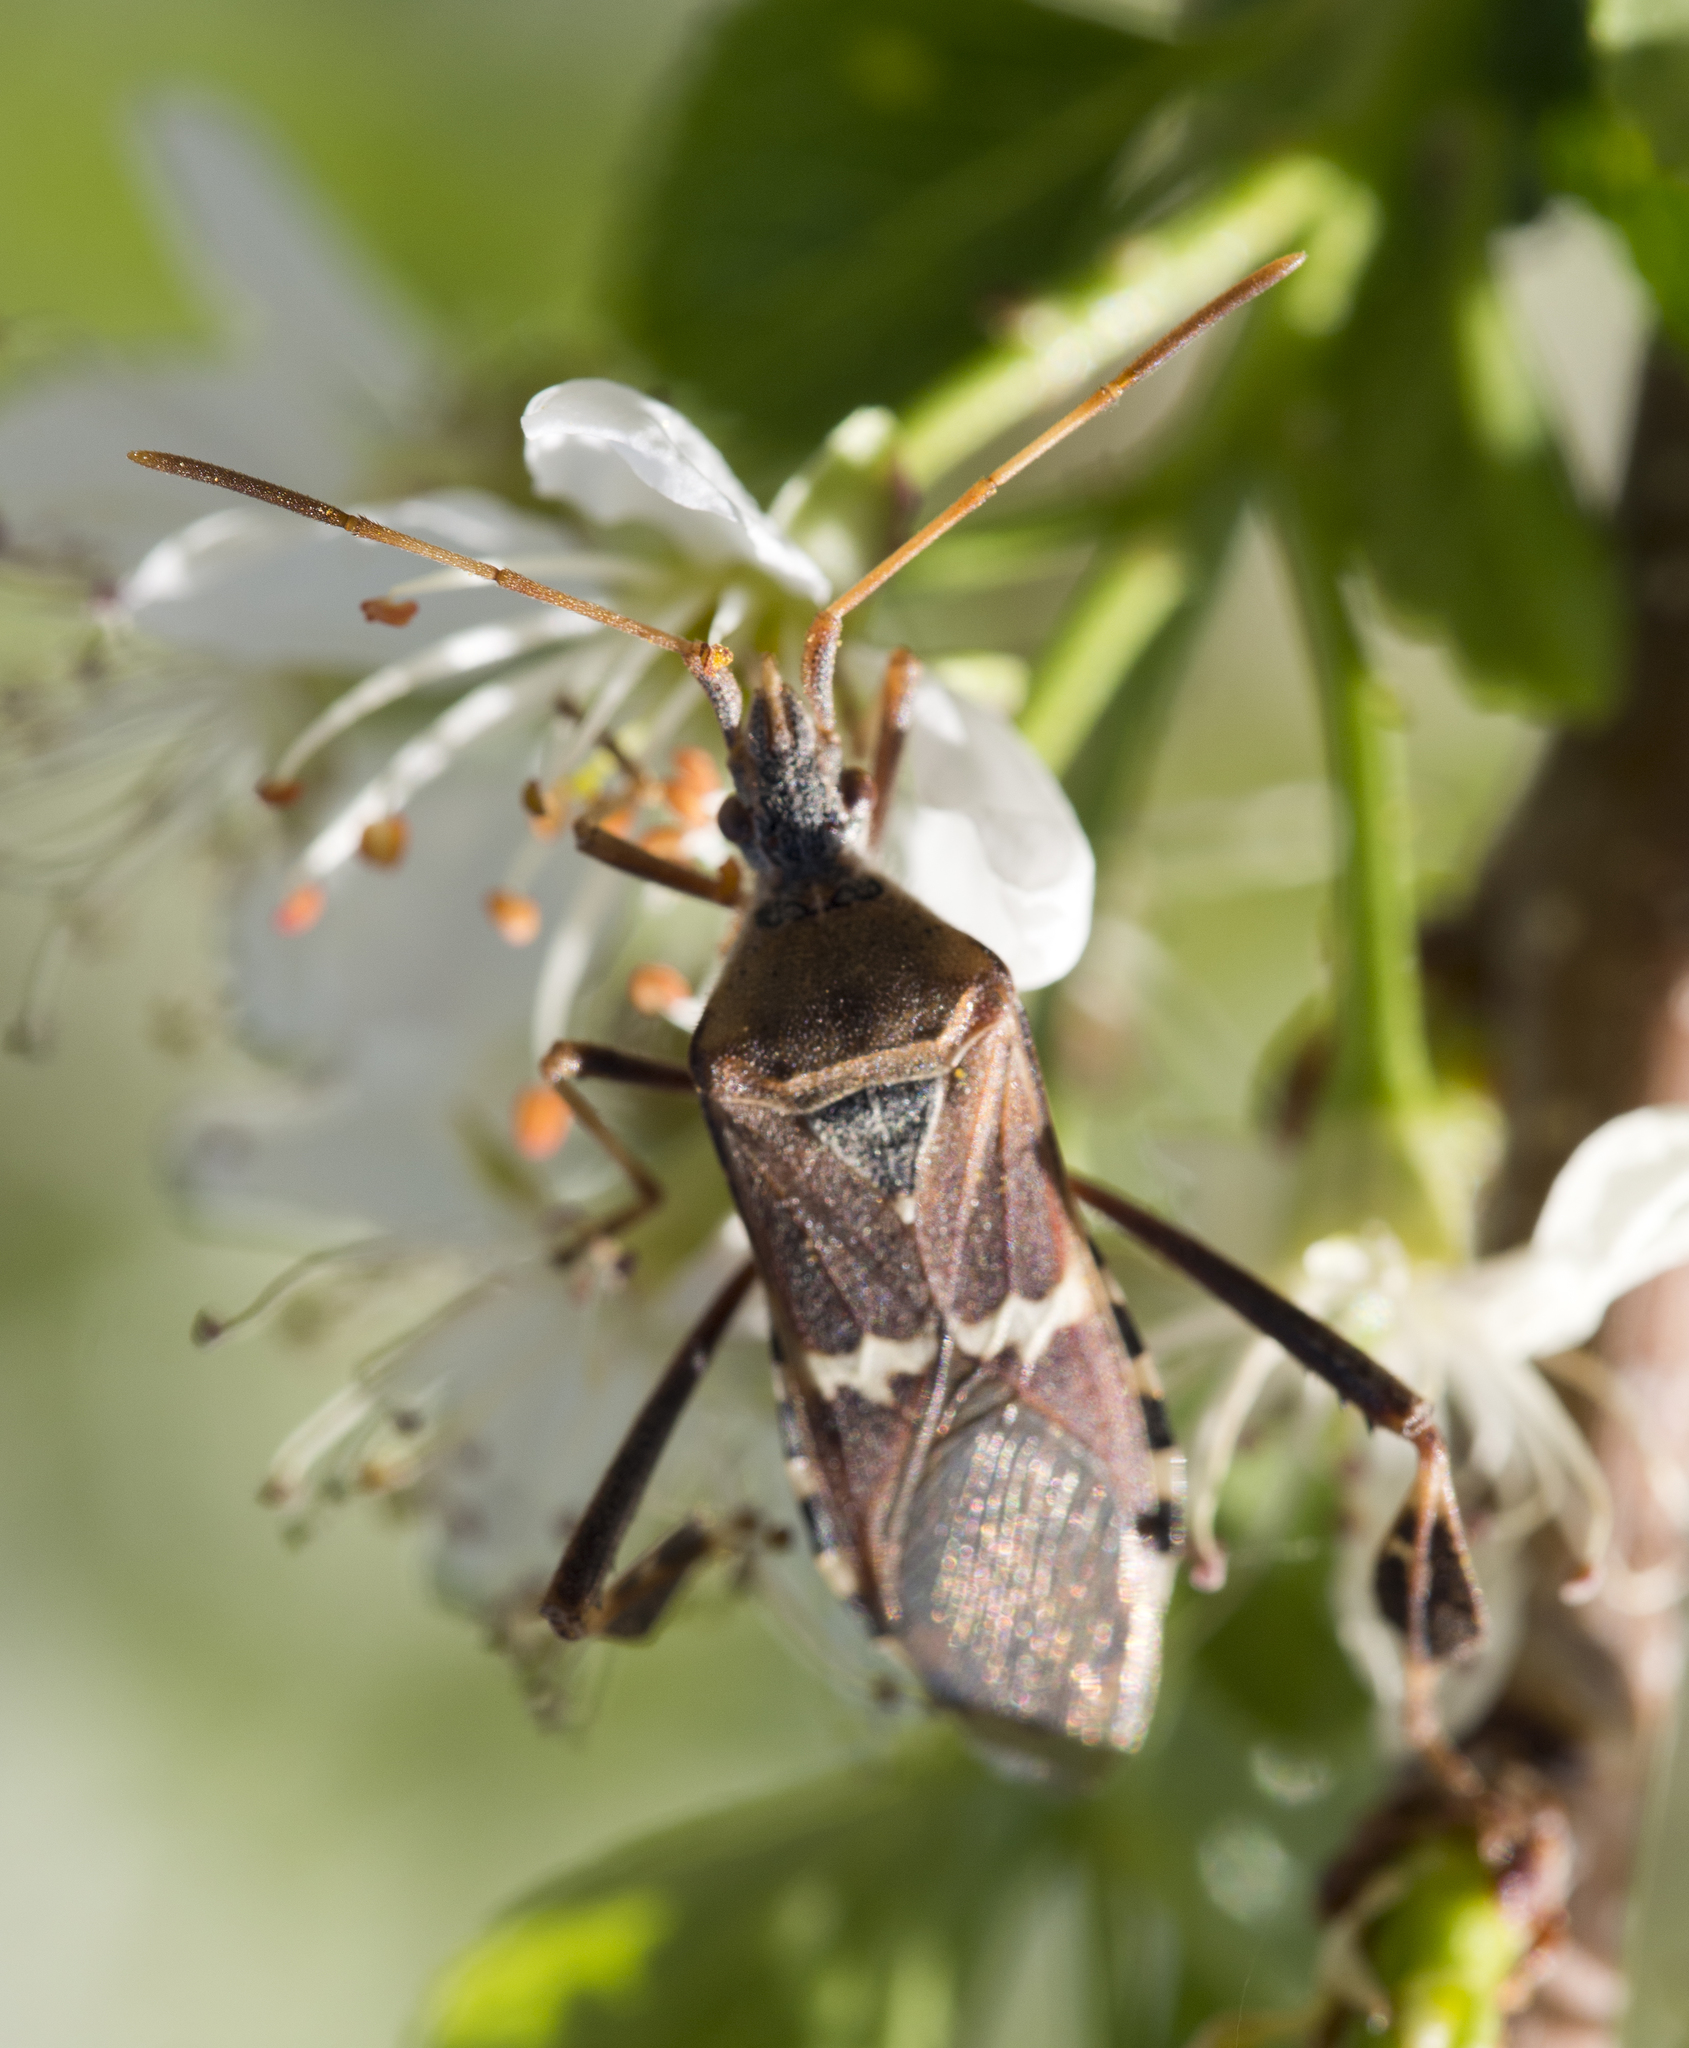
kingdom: Animalia
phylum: Arthropoda
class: Insecta
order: Hemiptera
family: Coreidae
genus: Leptoglossus
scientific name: Leptoglossus clypealis
